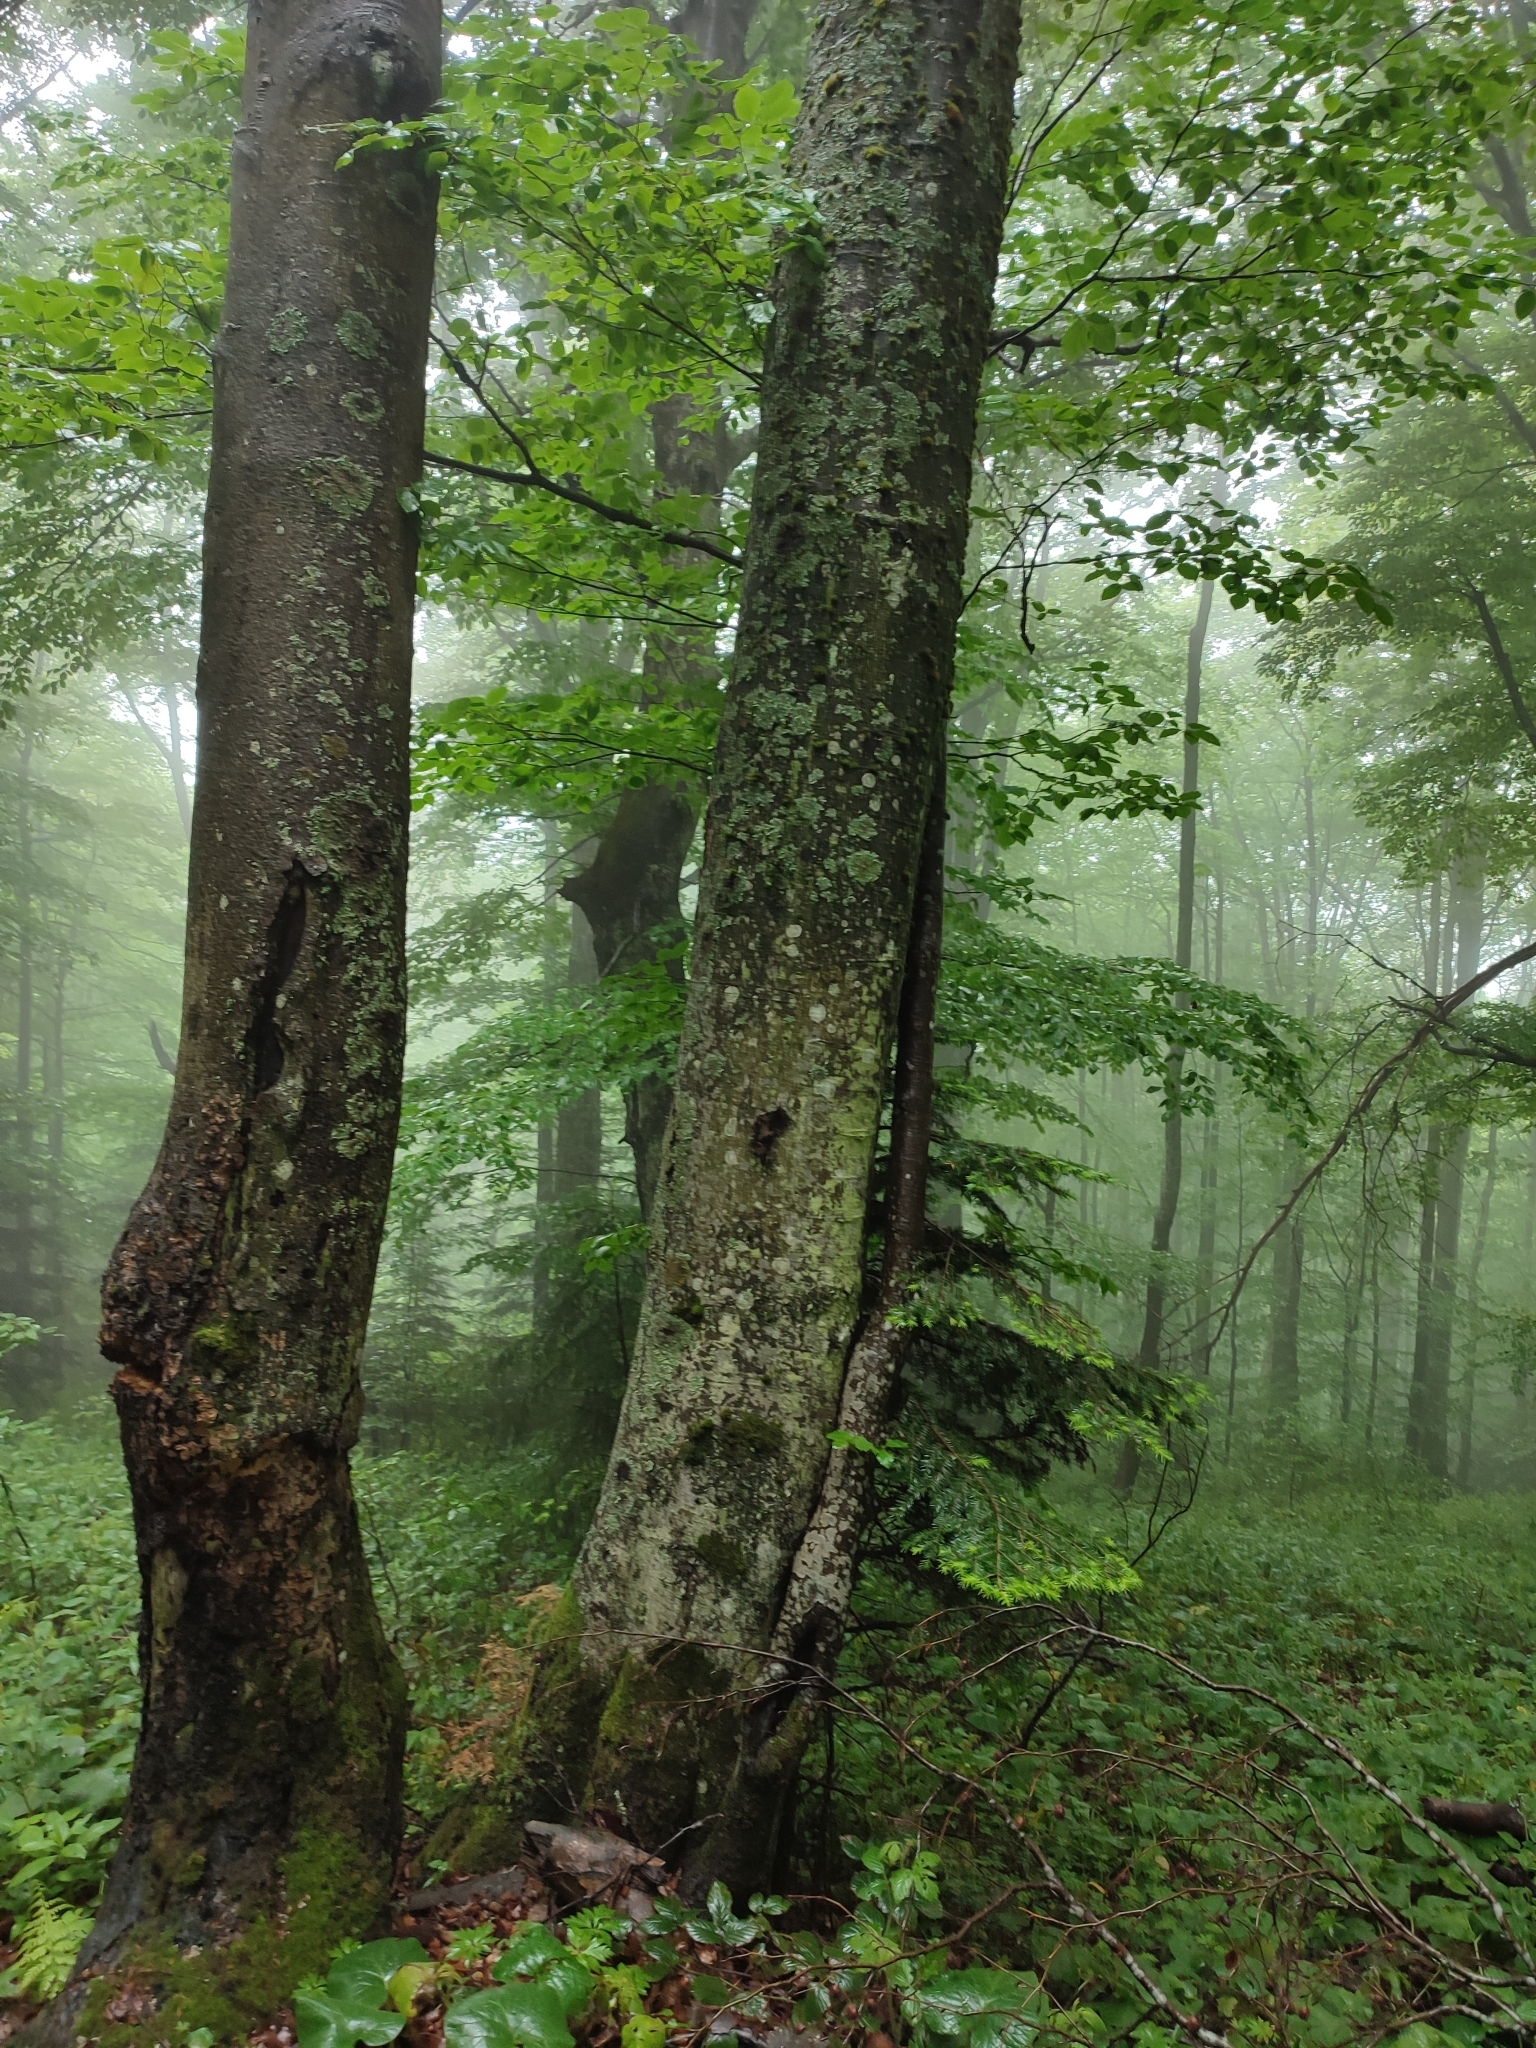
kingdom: Plantae
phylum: Tracheophyta
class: Magnoliopsida
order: Fagales
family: Fagaceae
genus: Fagus
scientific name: Fagus sylvatica
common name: Beech
